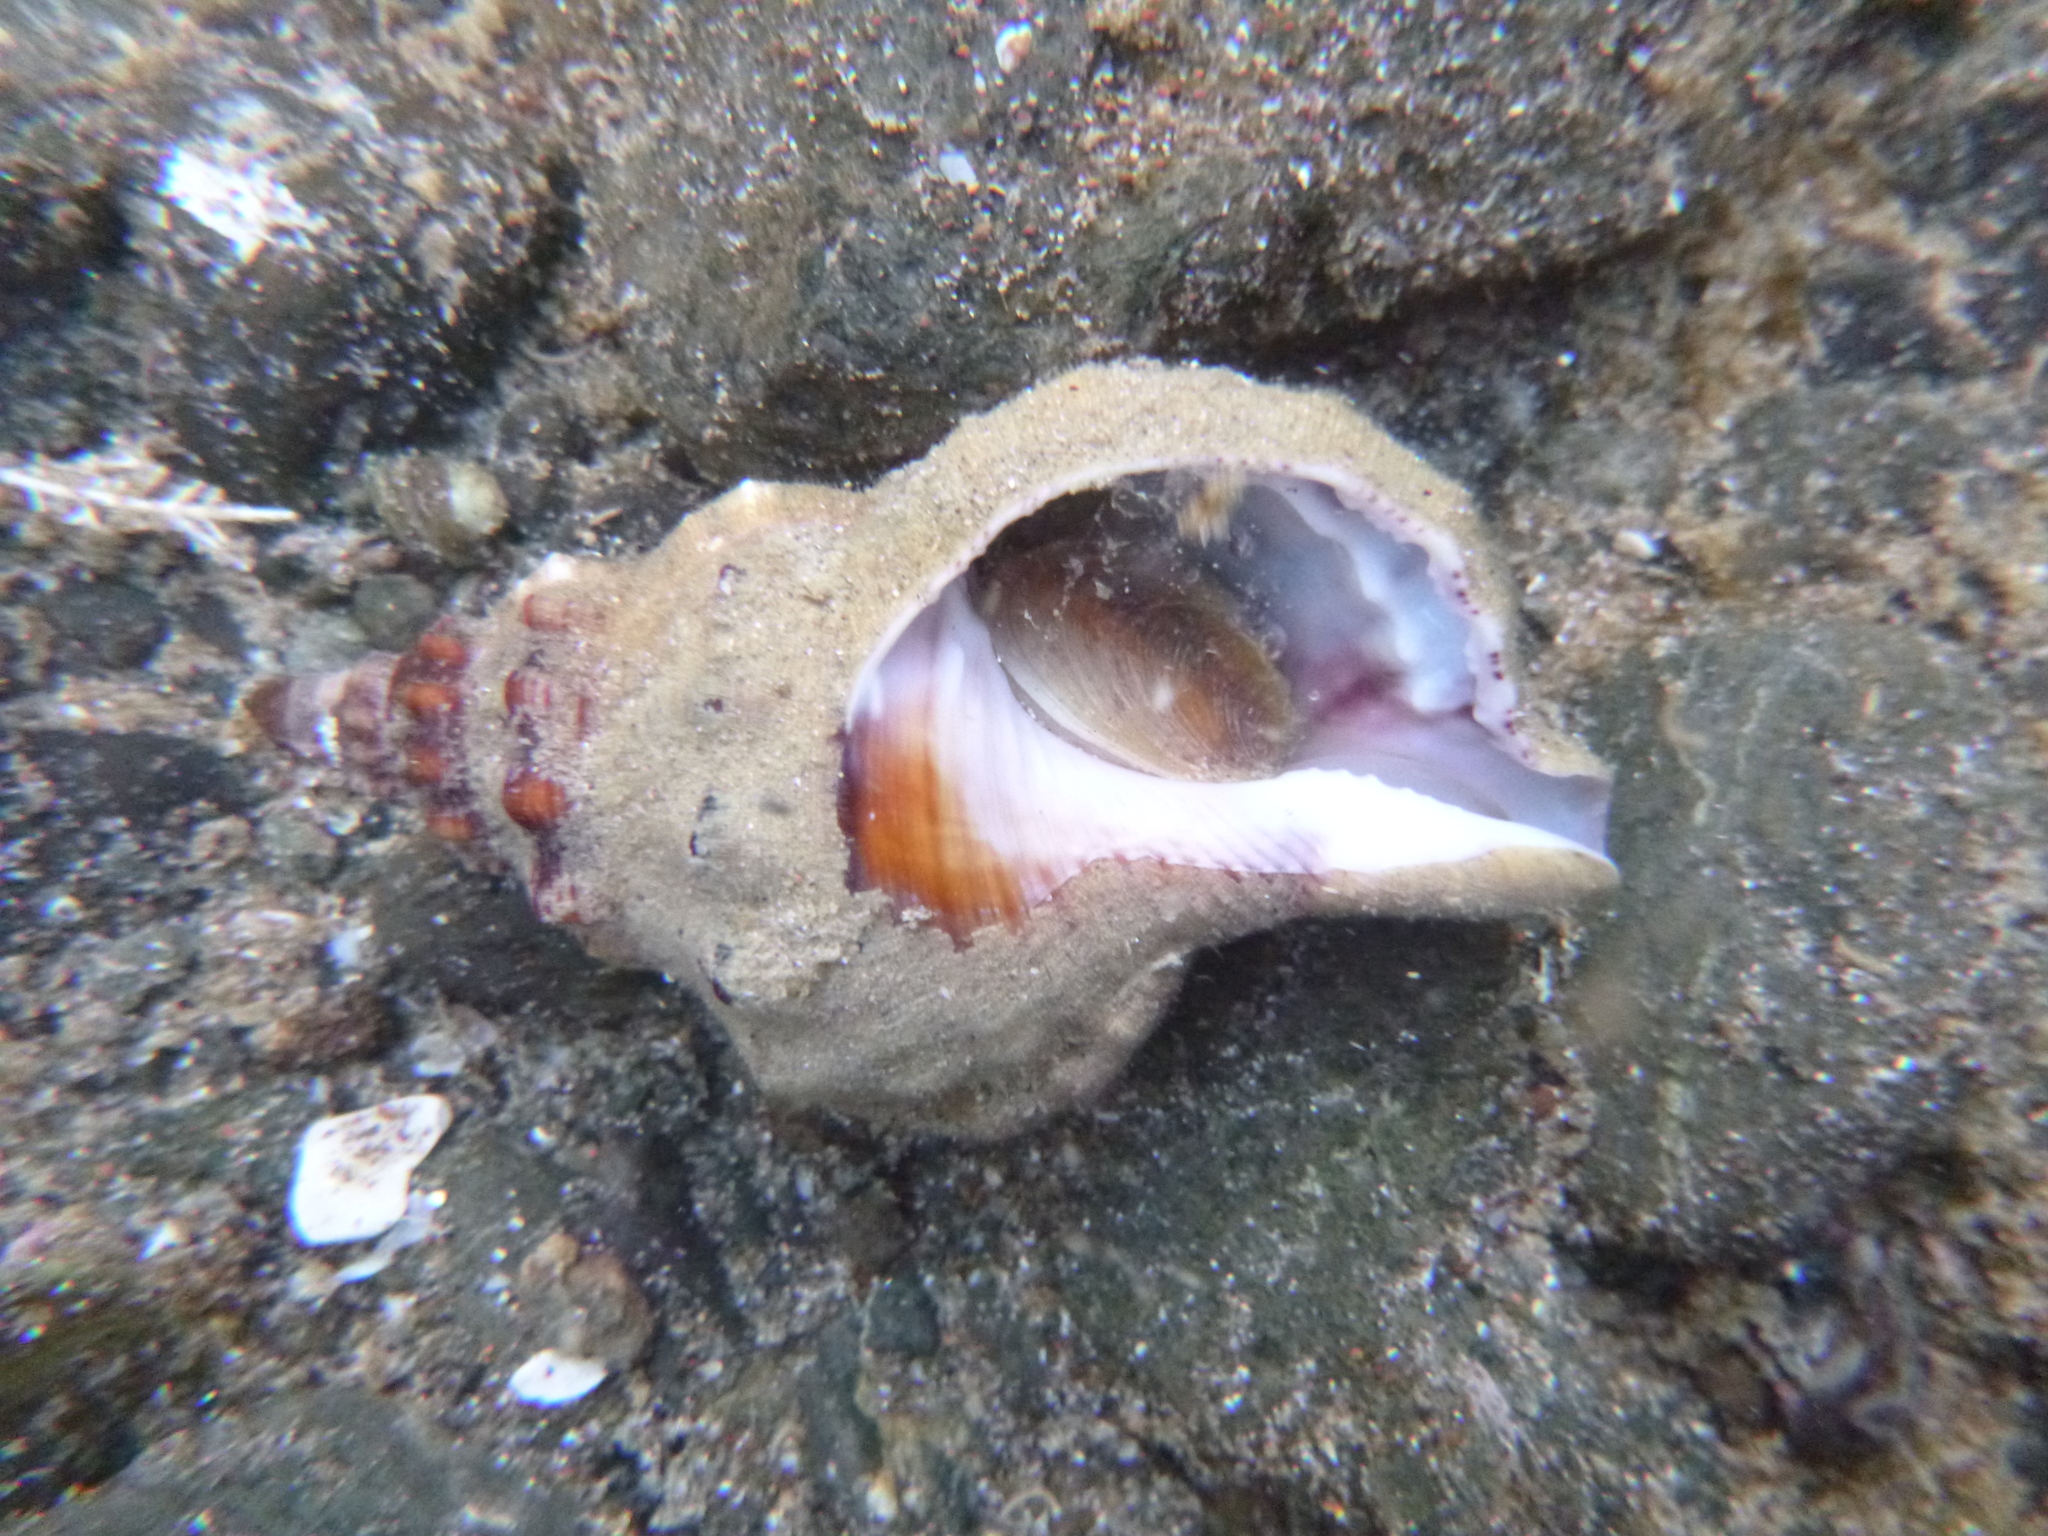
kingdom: Animalia
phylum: Mollusca
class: Gastropoda
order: Littorinimorpha
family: Ranellidae
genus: Ranella
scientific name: Ranella australasia
